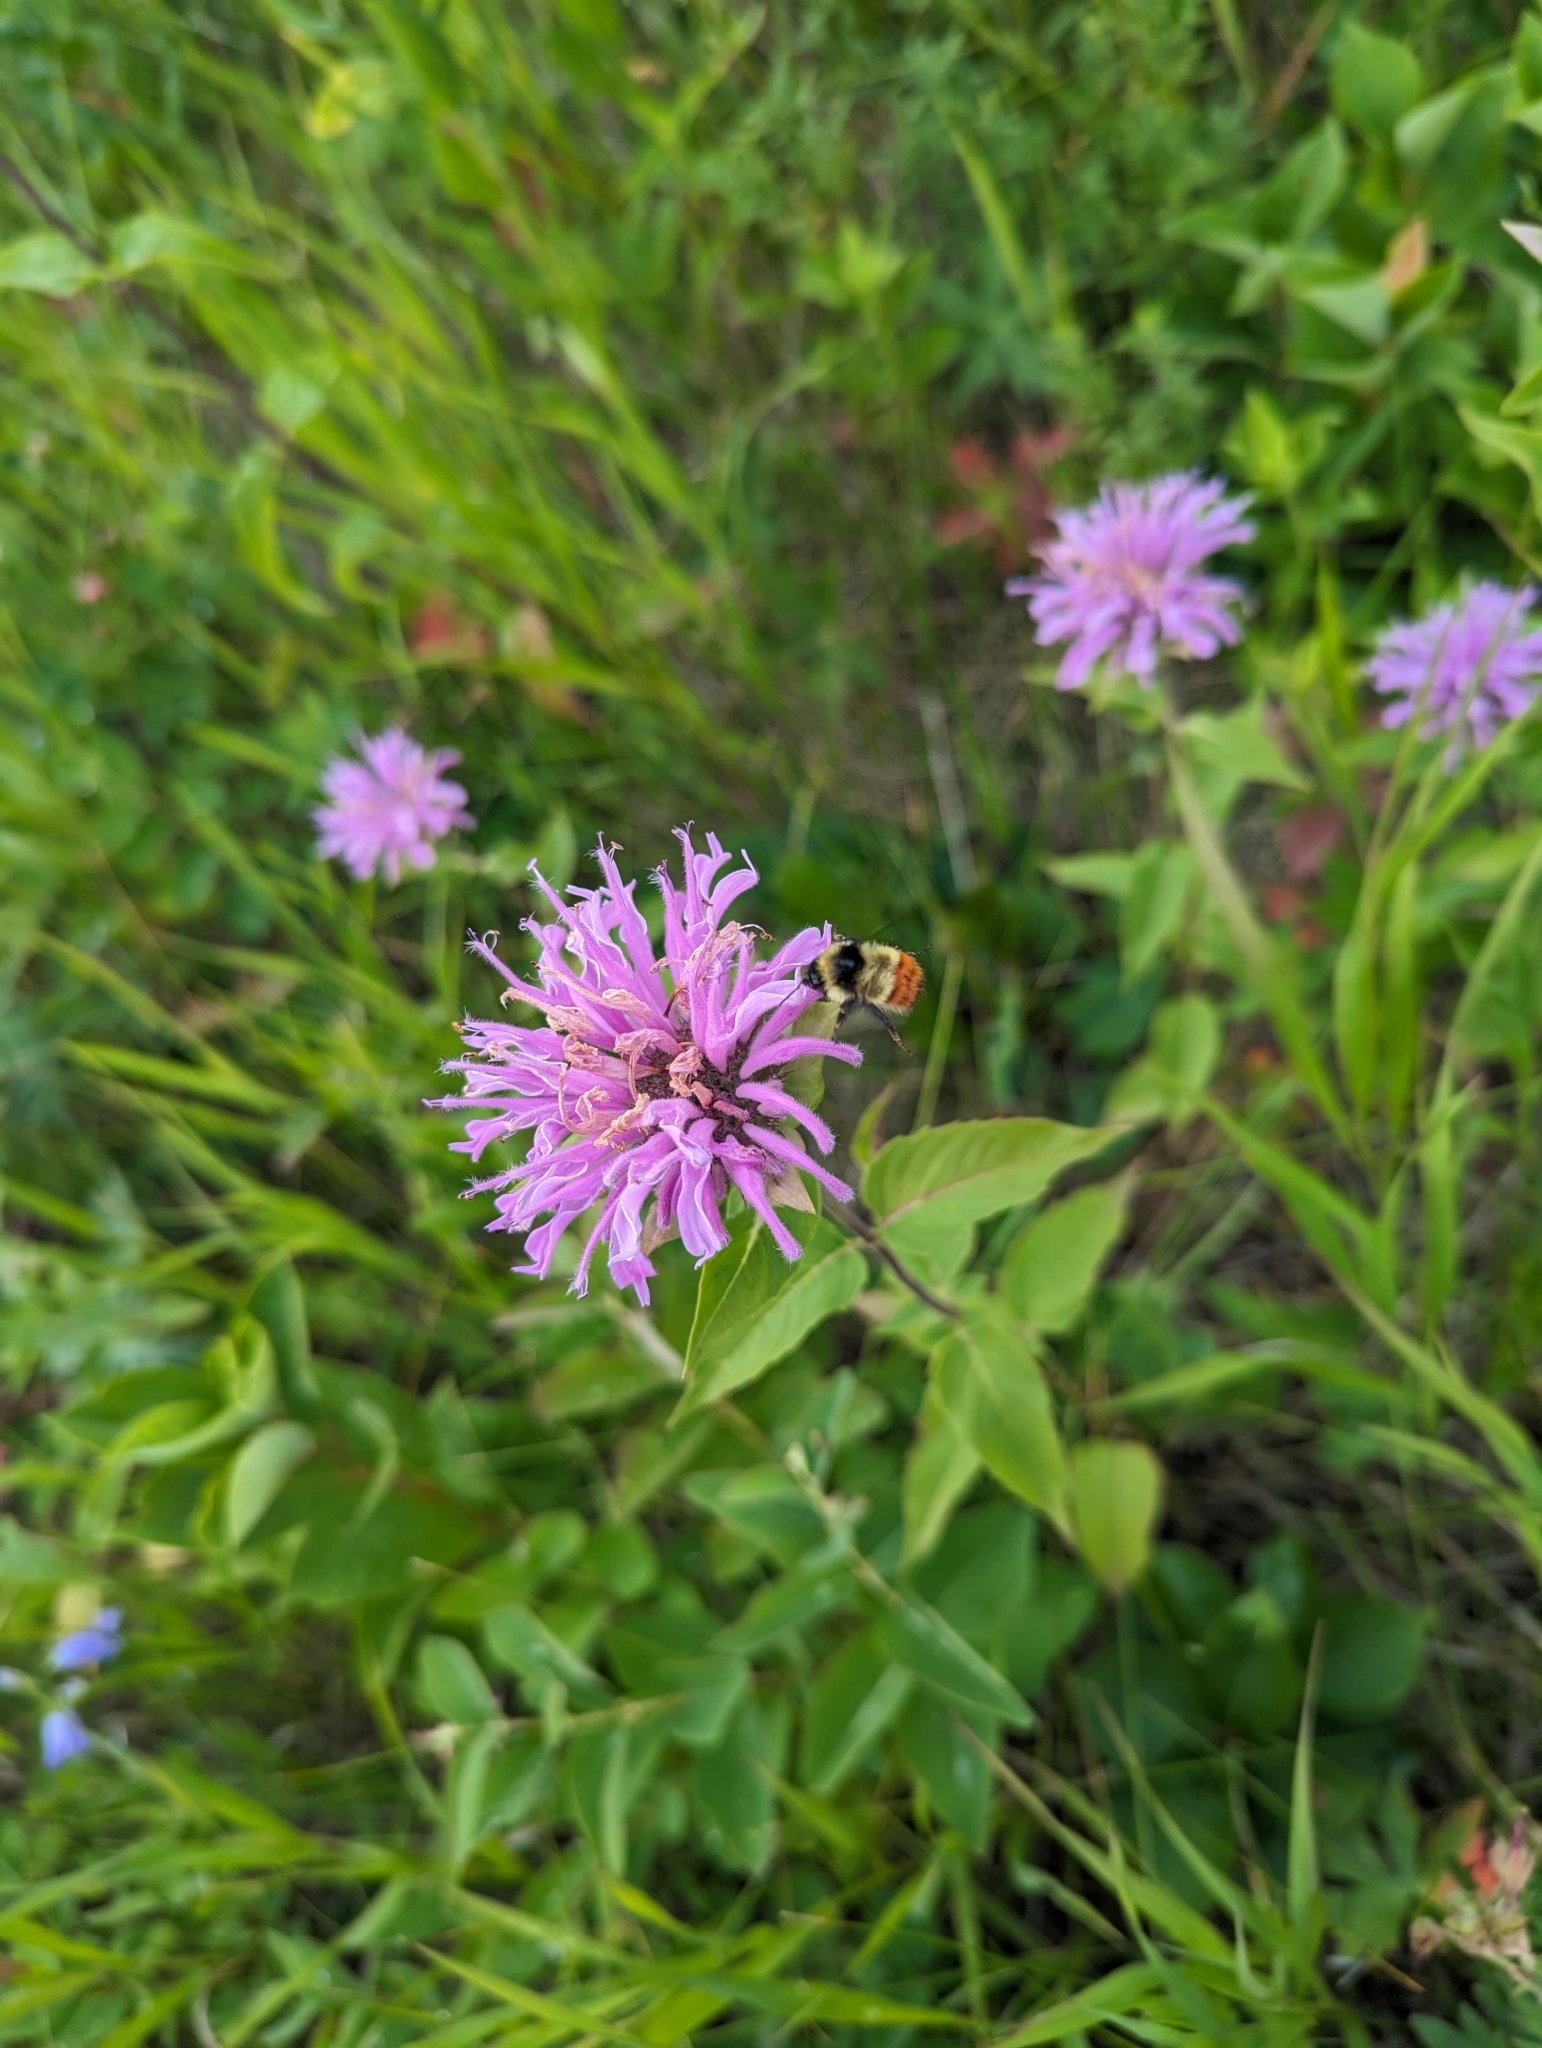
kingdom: Plantae
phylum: Tracheophyta
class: Magnoliopsida
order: Lamiales
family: Lamiaceae
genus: Monarda
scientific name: Monarda fistulosa
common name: Purple beebalm
